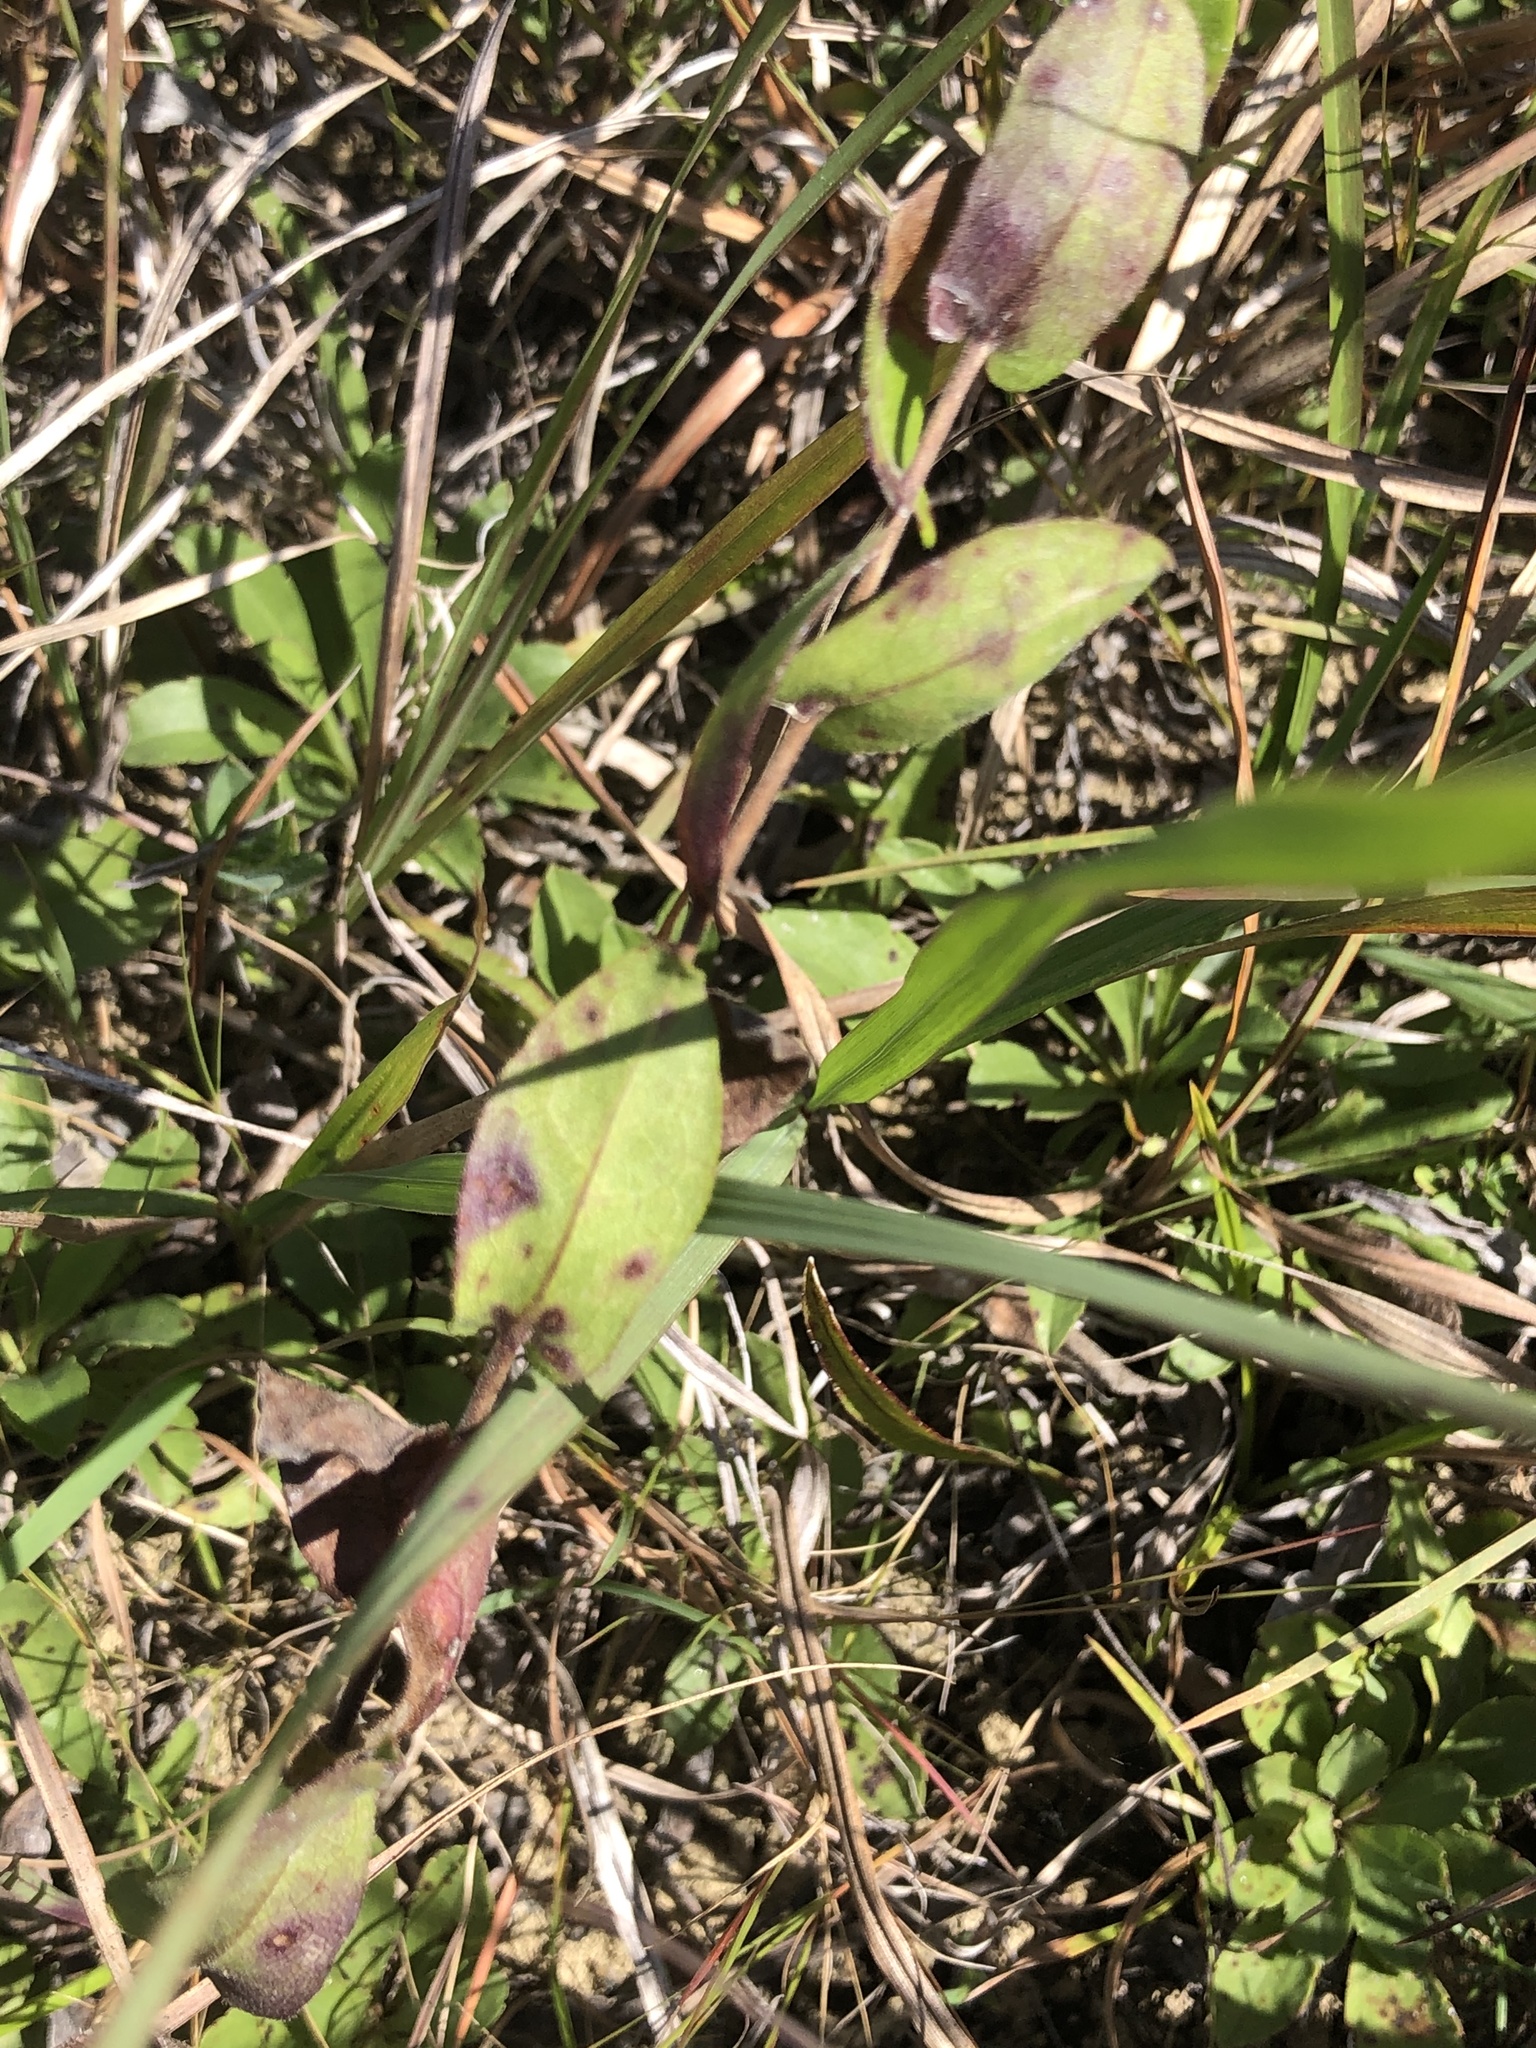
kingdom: Plantae
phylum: Tracheophyta
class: Magnoliopsida
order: Asterales
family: Asteraceae
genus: Symphyotrichum
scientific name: Symphyotrichum patens
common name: Late purple aster
